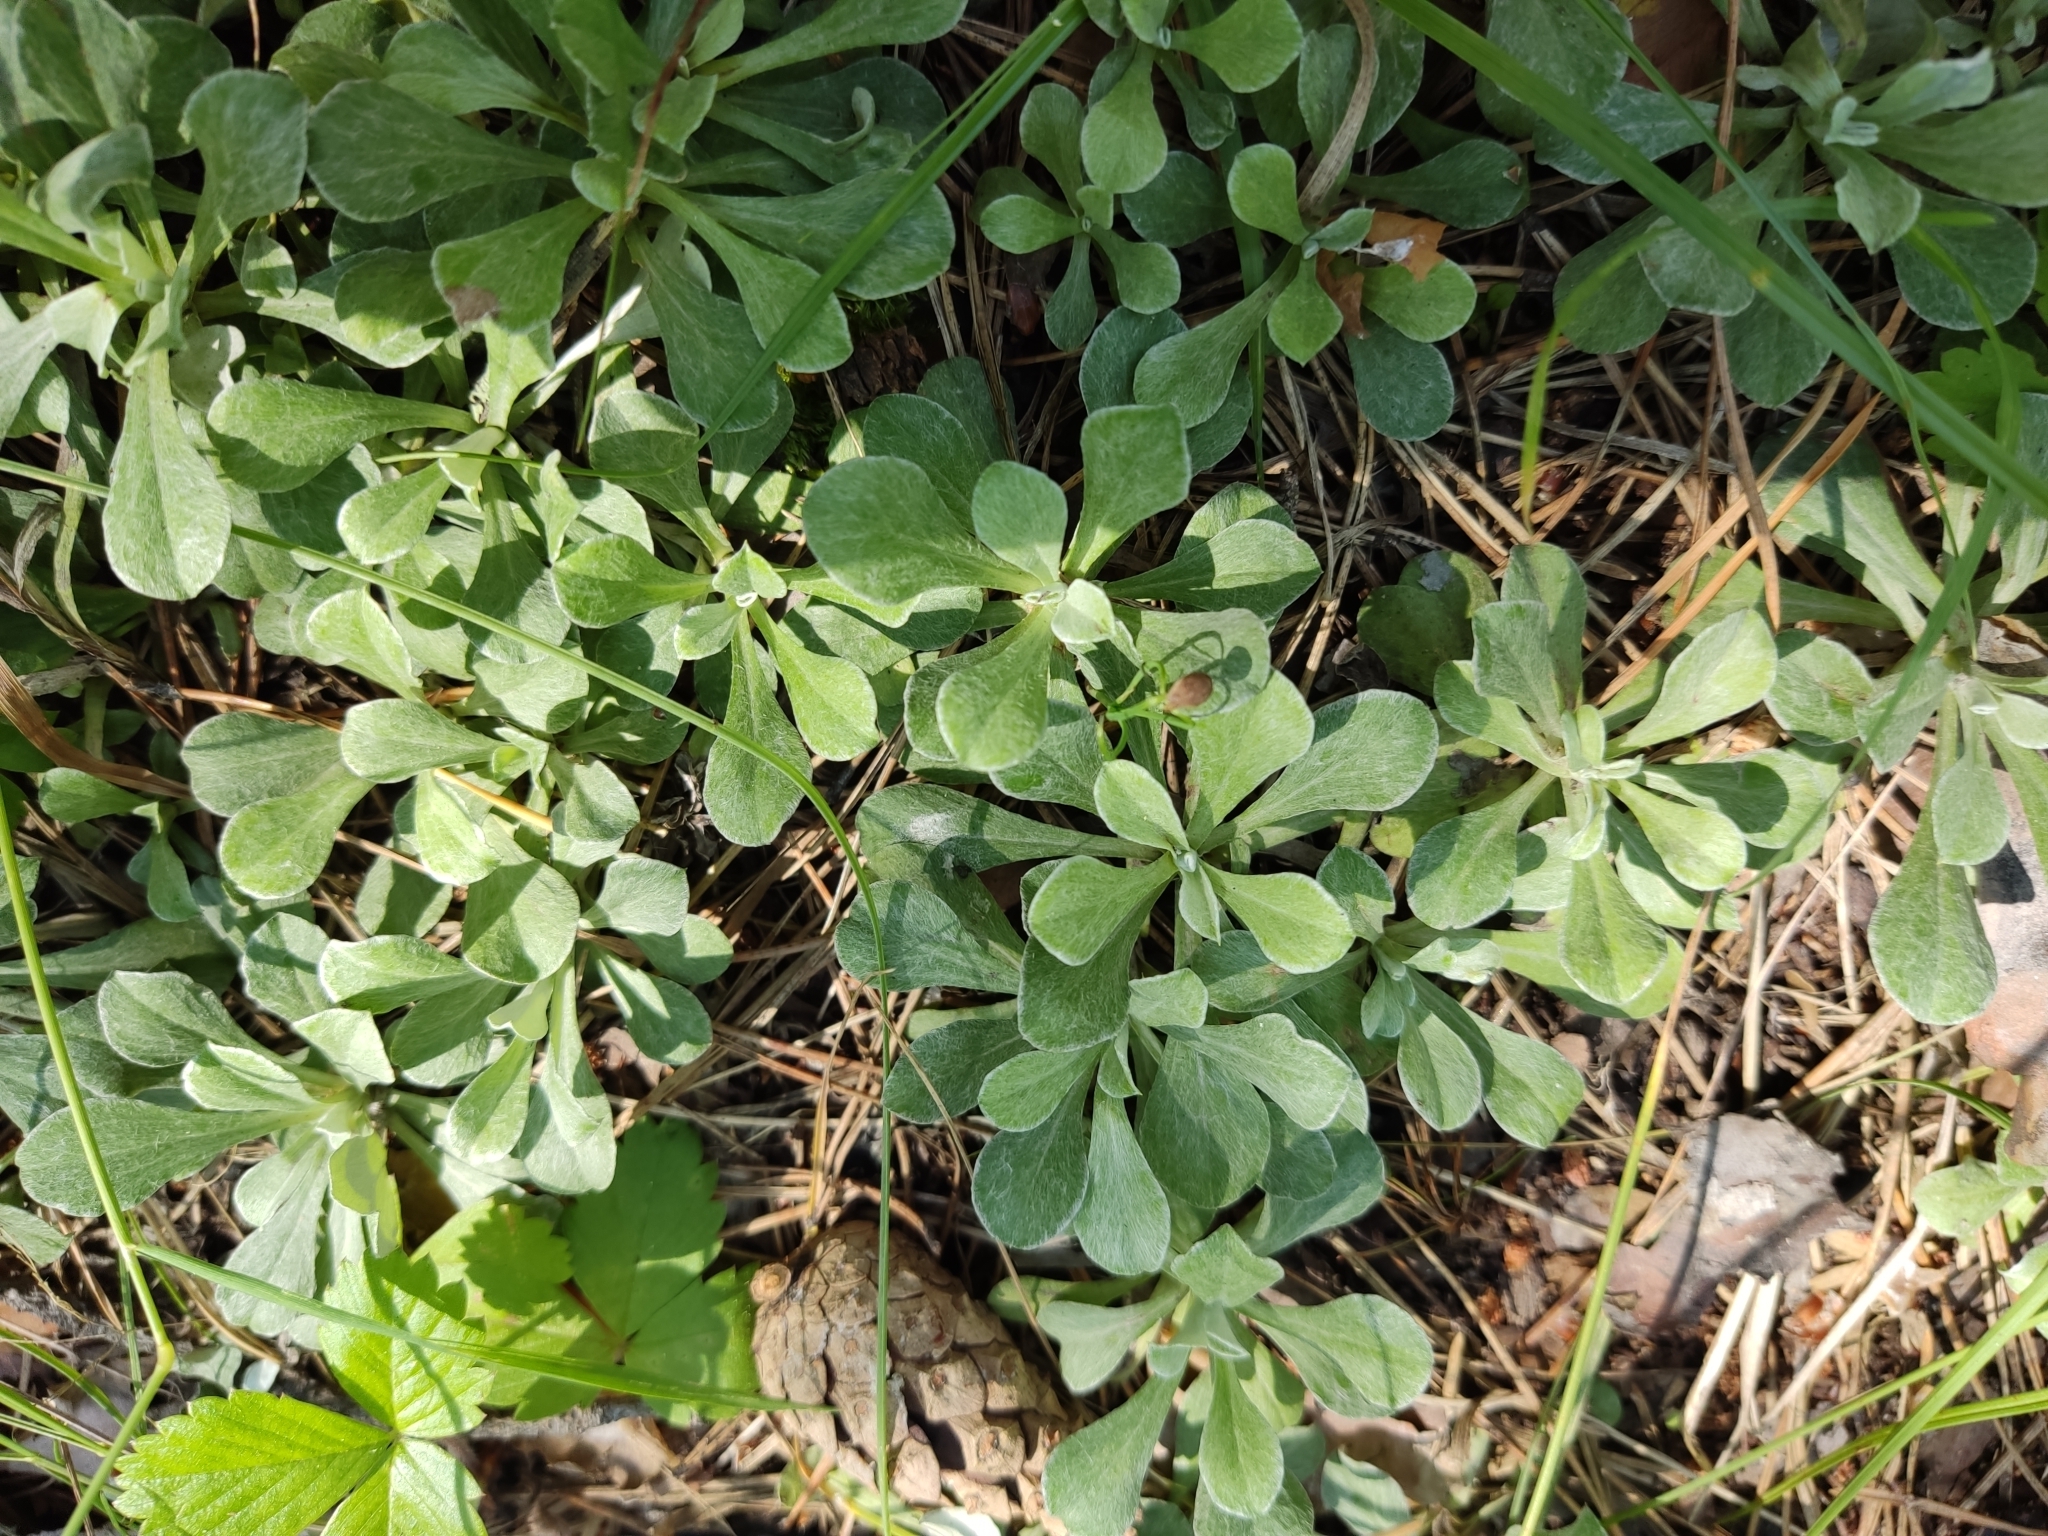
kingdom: Plantae
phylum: Tracheophyta
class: Magnoliopsida
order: Asterales
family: Asteraceae
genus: Antennaria
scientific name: Antennaria dioica
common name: Mountain everlasting
